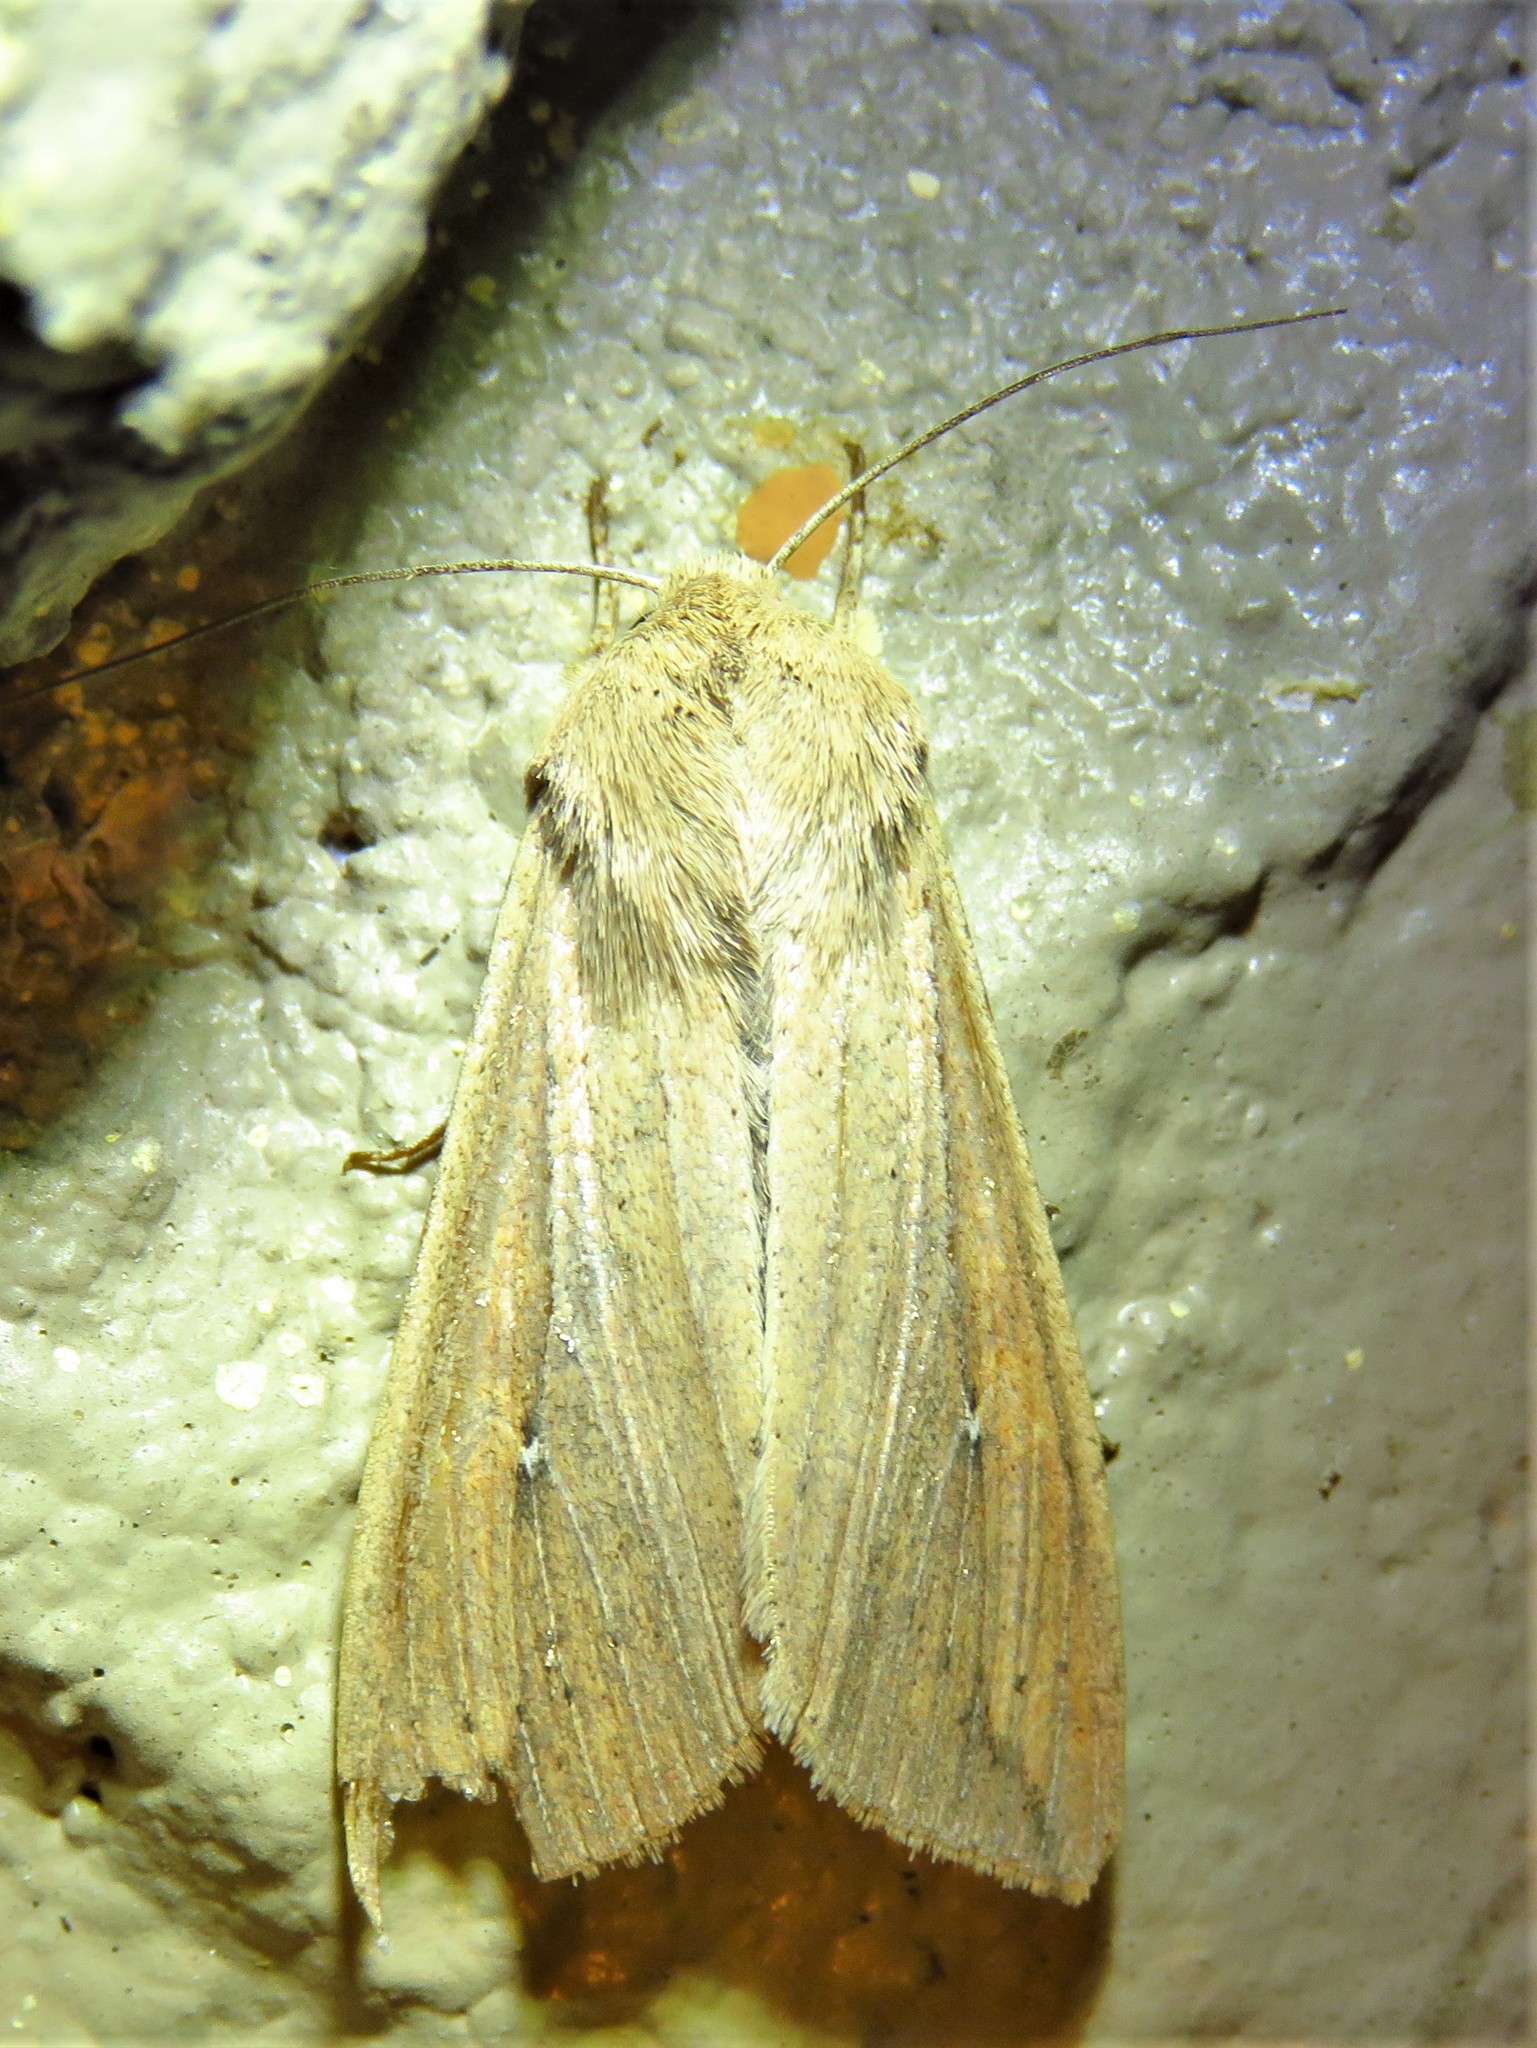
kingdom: Animalia
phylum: Arthropoda
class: Insecta
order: Lepidoptera
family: Noctuidae
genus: Mythimna
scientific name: Mythimna unipuncta
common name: White-speck
